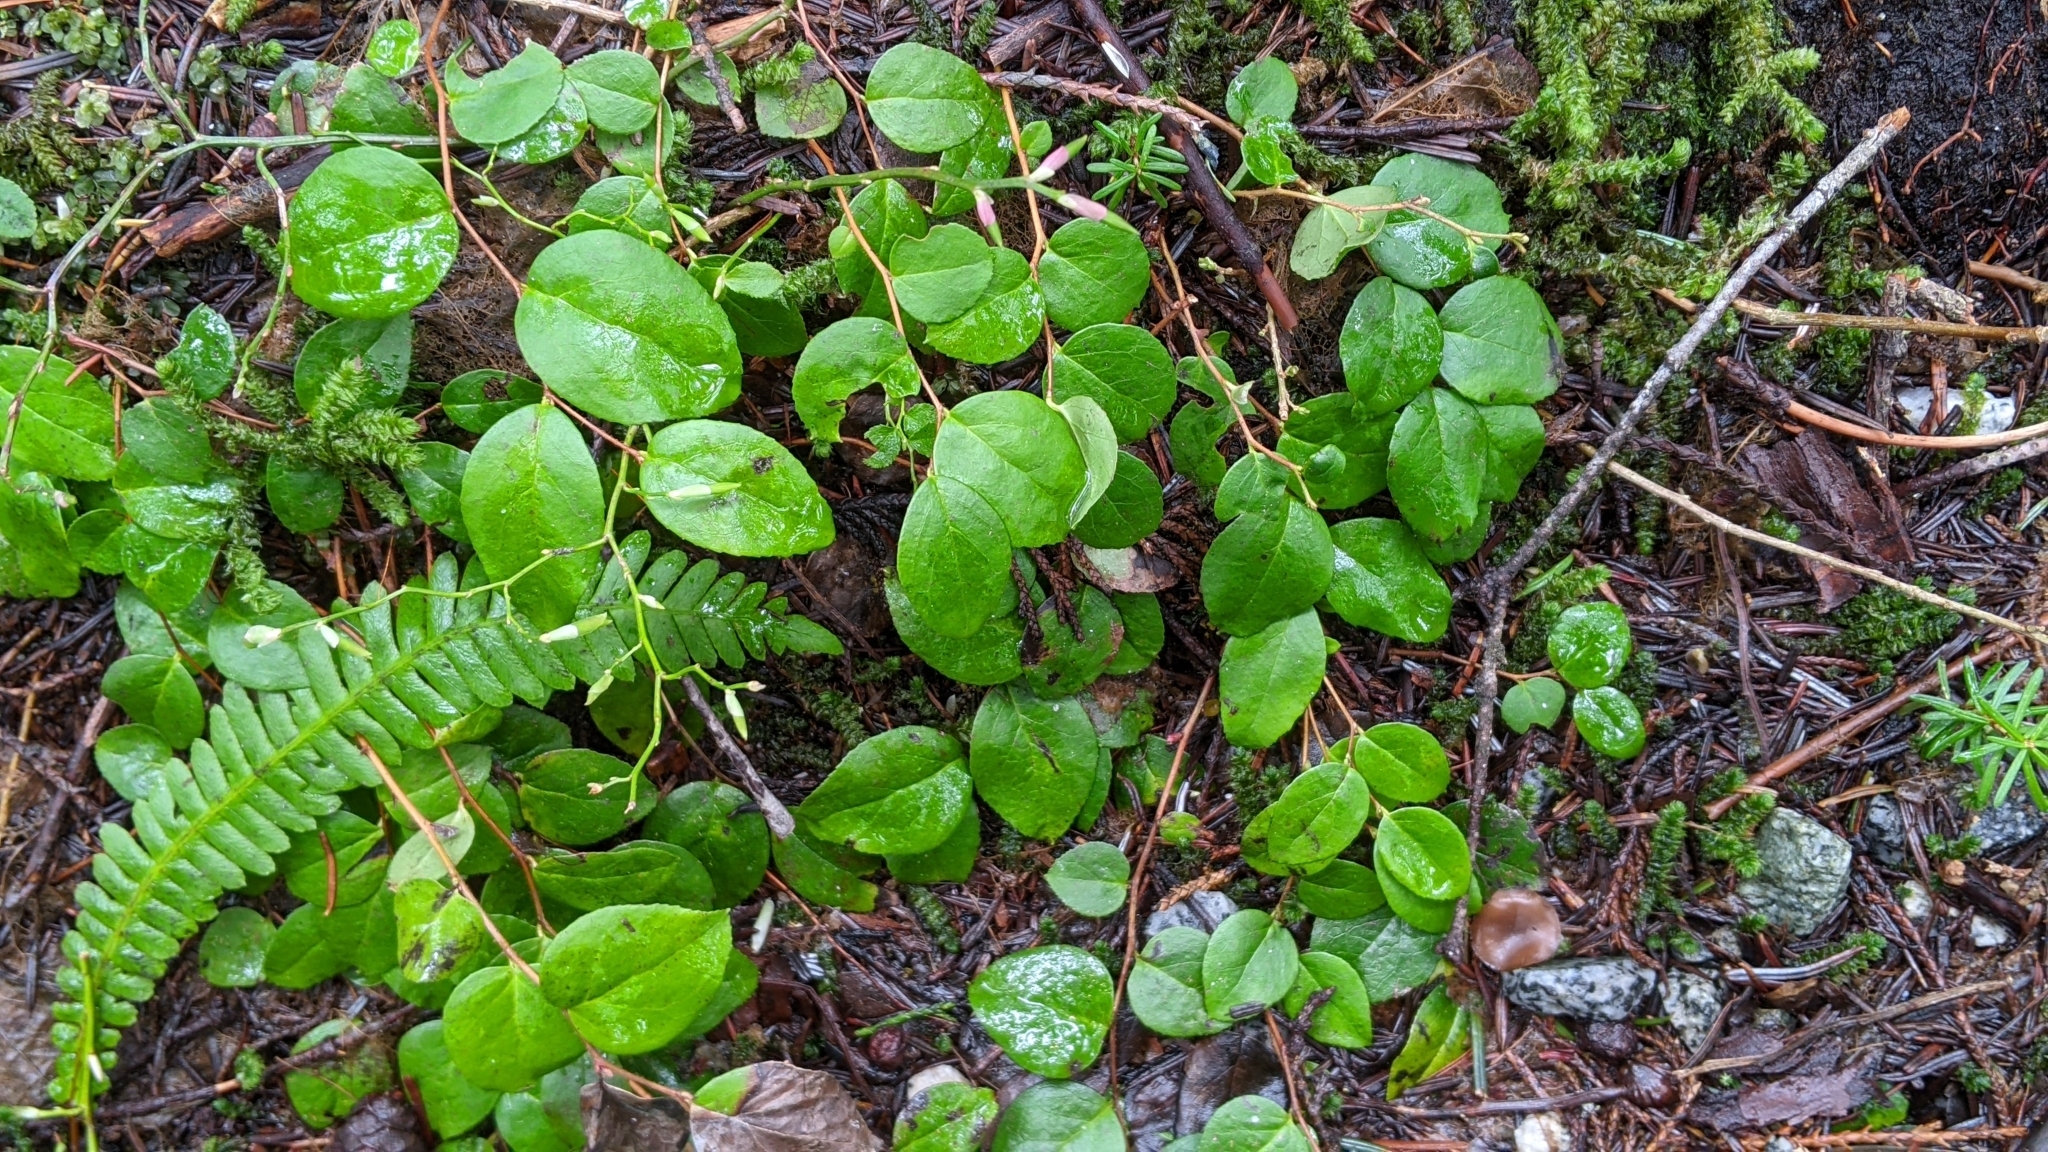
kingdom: Plantae
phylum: Tracheophyta
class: Magnoliopsida
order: Ericales
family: Ericaceae
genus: Gaultheria
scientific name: Gaultheria ovatifolia
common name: Oregon wintergreen
